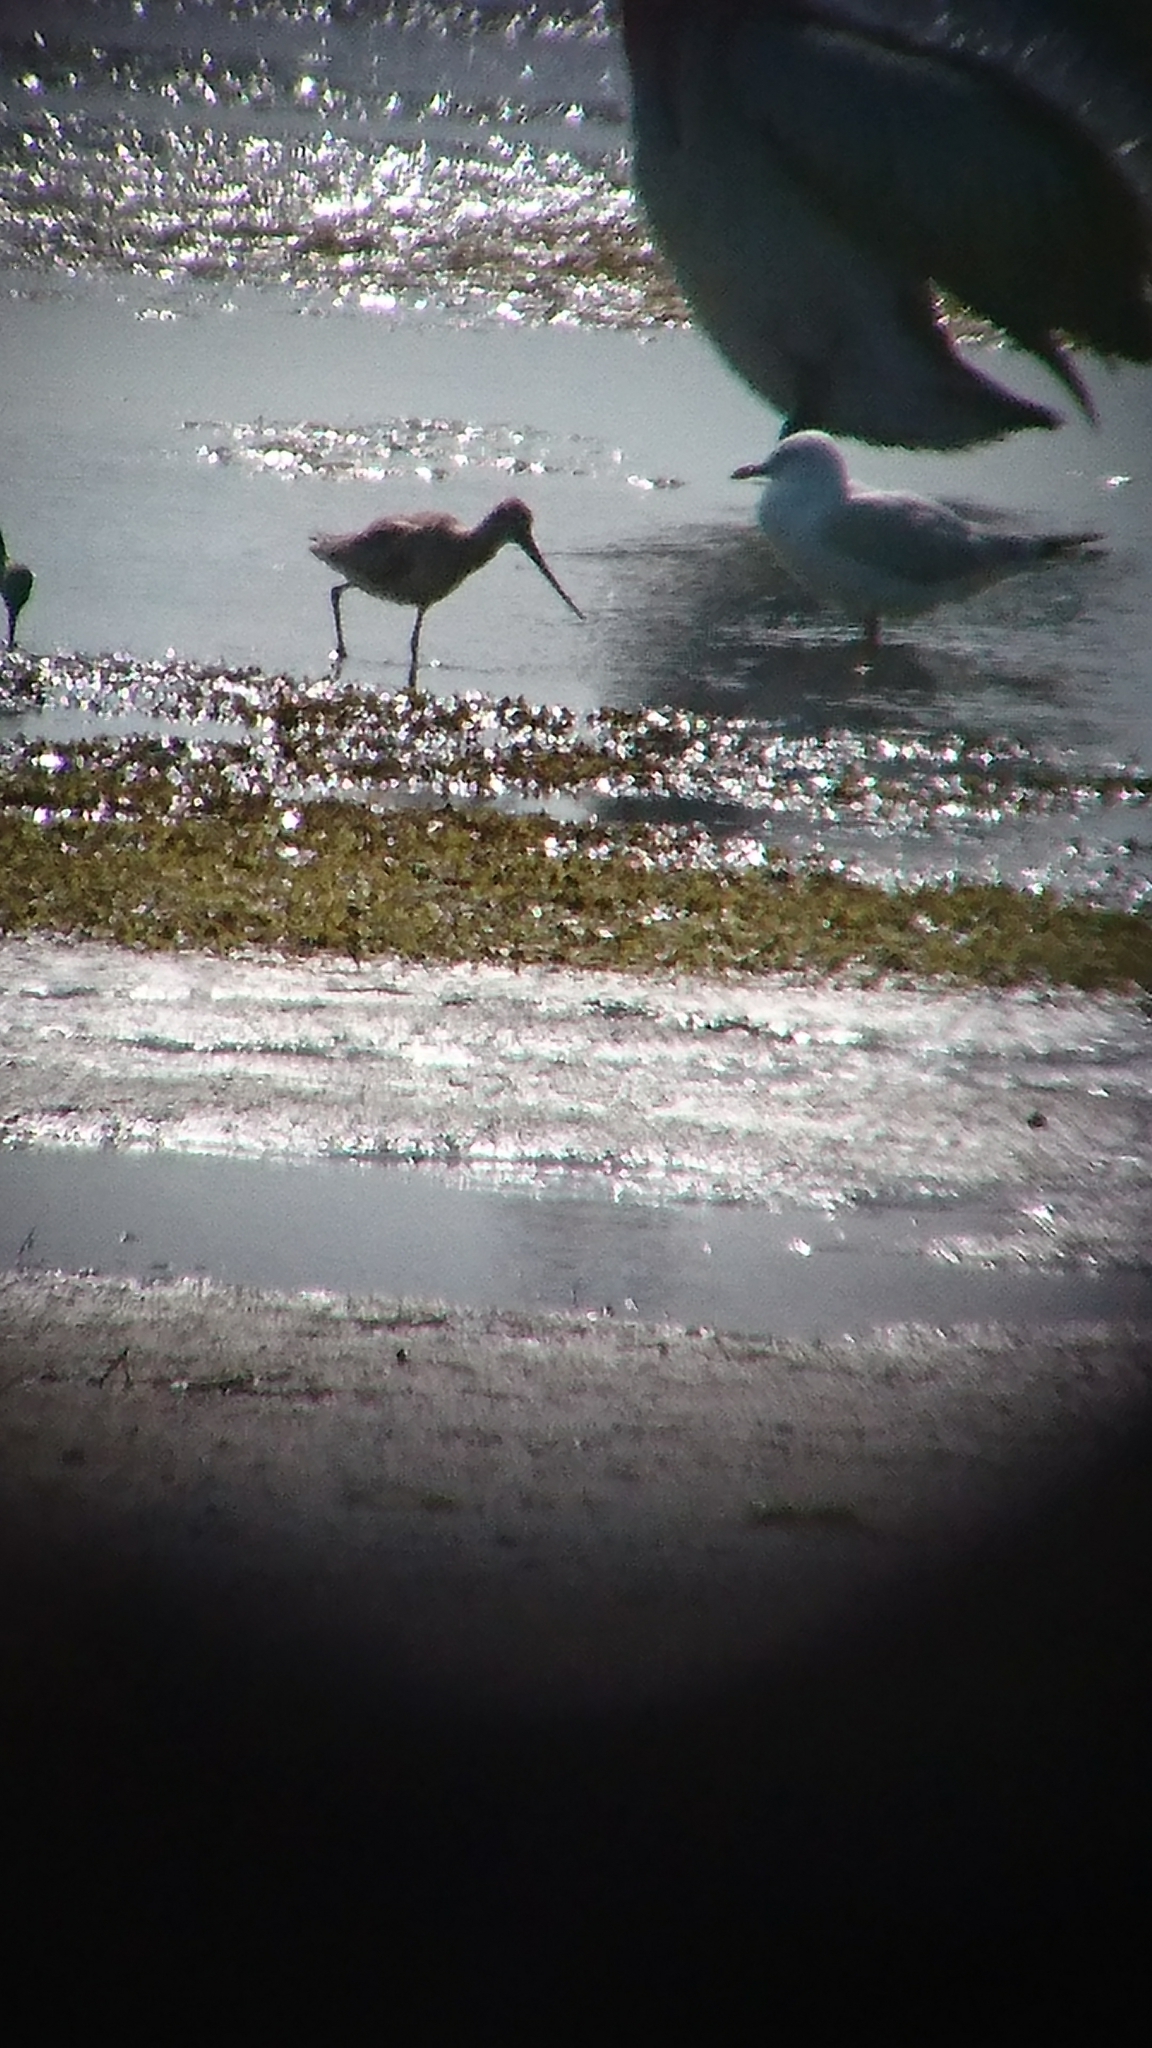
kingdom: Animalia
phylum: Chordata
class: Aves
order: Charadriiformes
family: Scolopacidae
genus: Limosa
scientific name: Limosa lapponica
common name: Bar-tailed godwit
